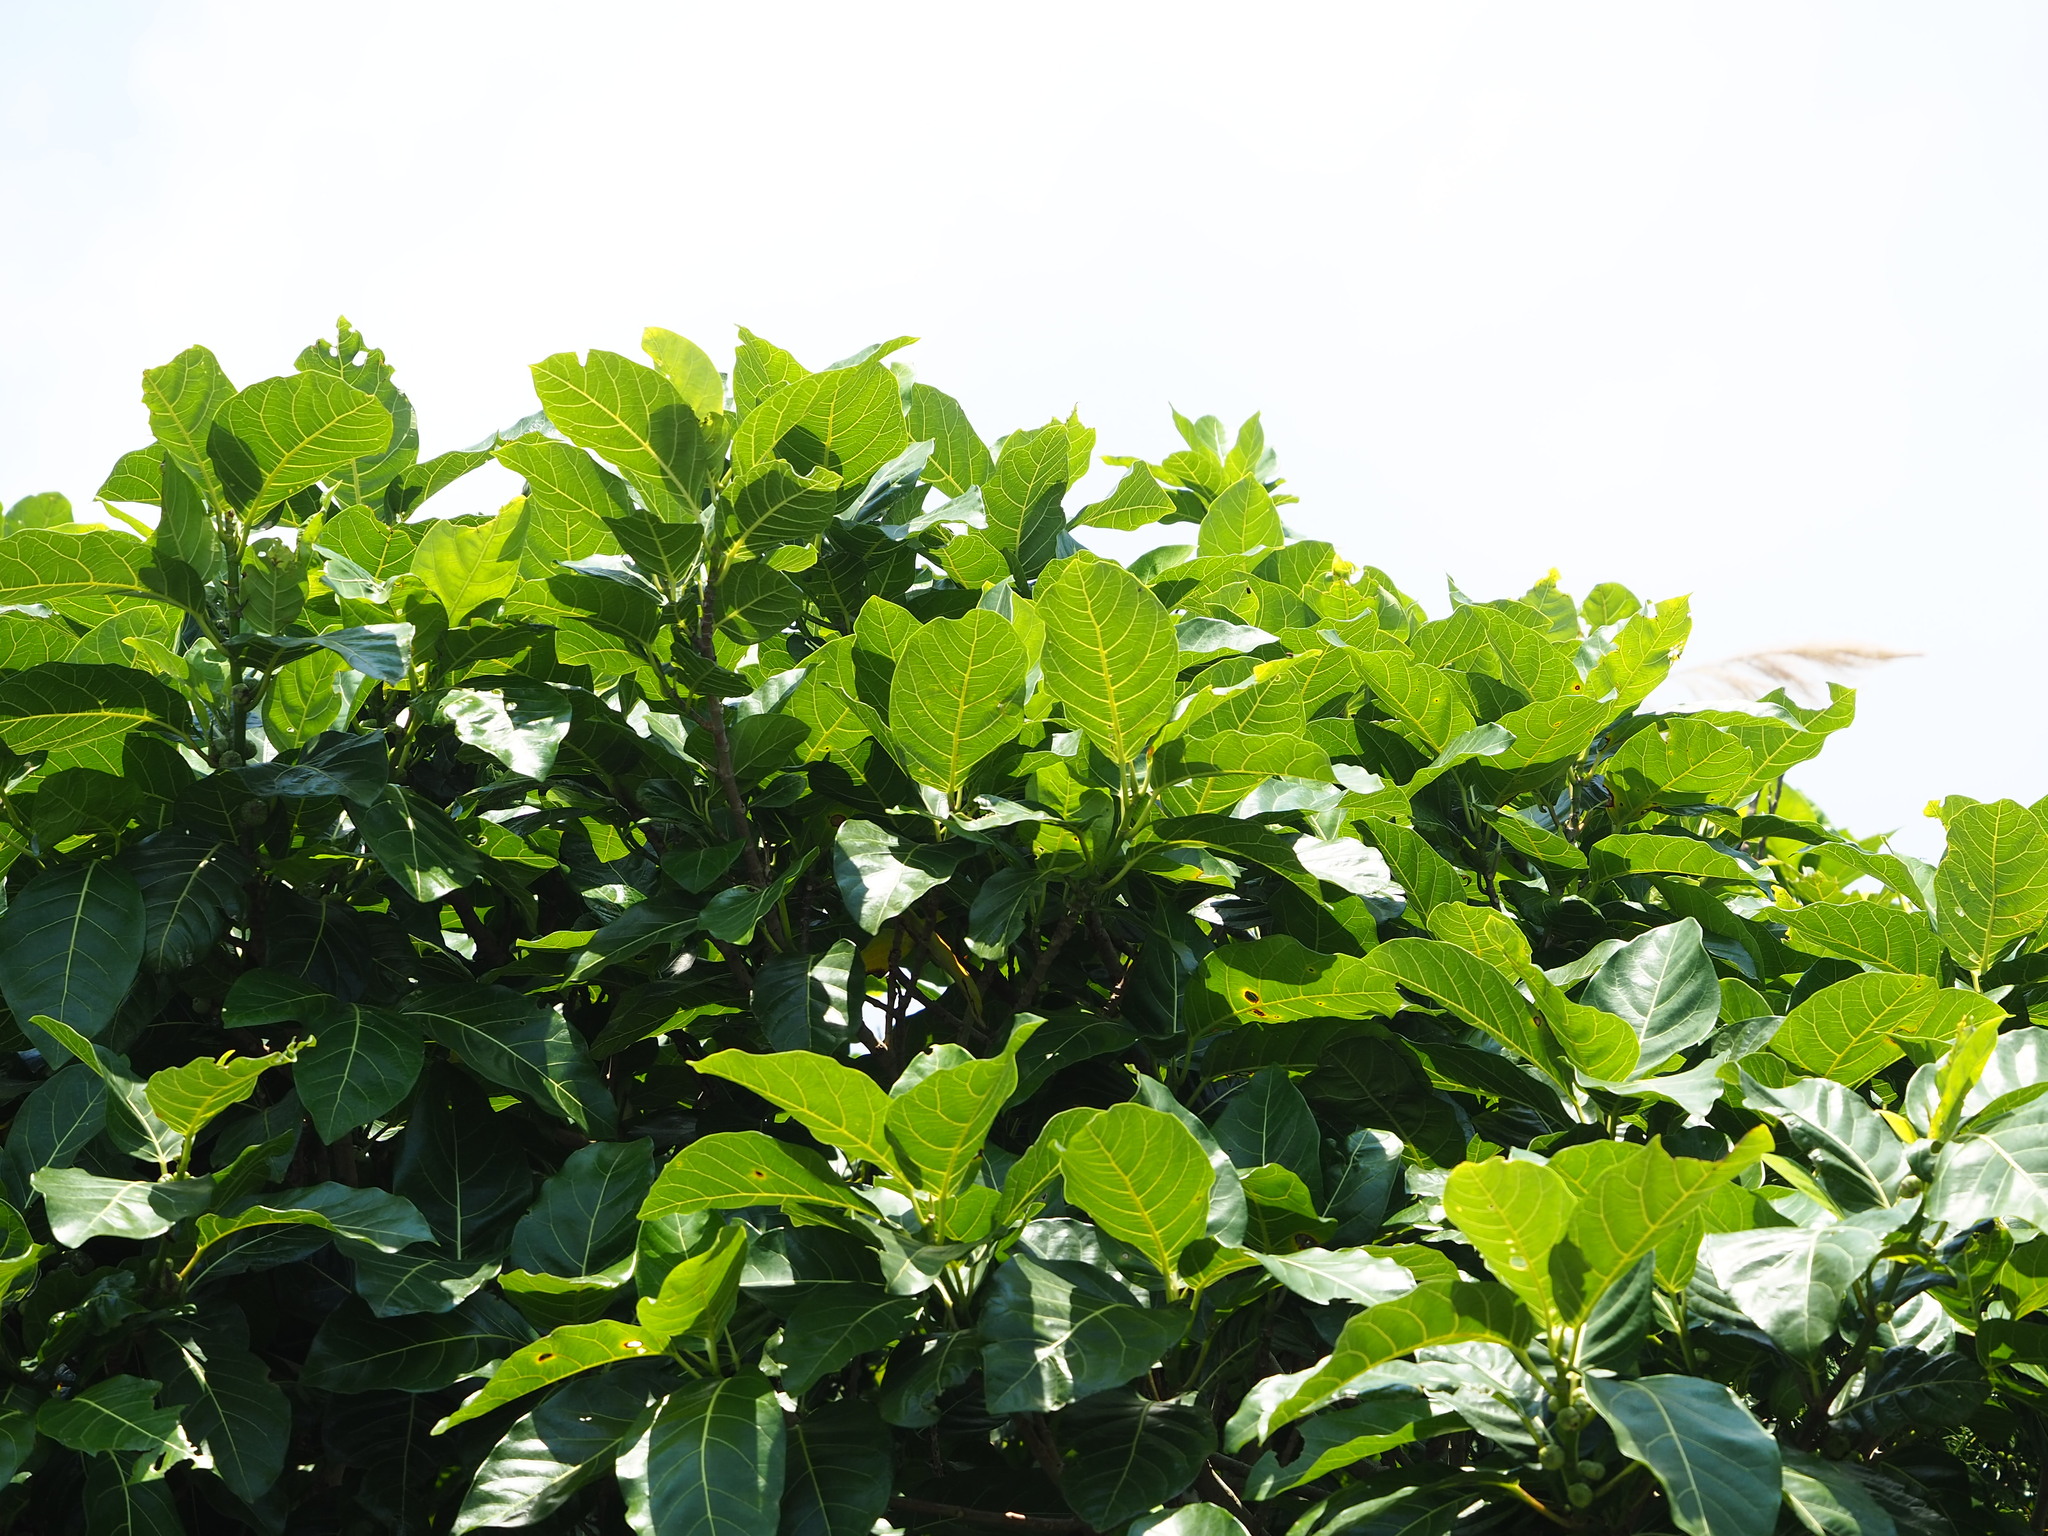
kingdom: Plantae
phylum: Tracheophyta
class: Magnoliopsida
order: Rosales
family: Moraceae
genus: Ficus
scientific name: Ficus septica
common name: Septic fig
